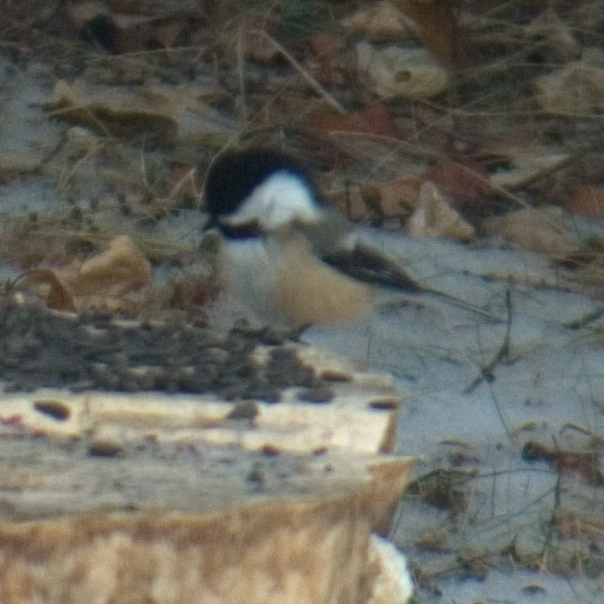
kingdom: Animalia
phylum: Chordata
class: Aves
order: Passeriformes
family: Paridae
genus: Poecile
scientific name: Poecile atricapillus
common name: Black-capped chickadee
